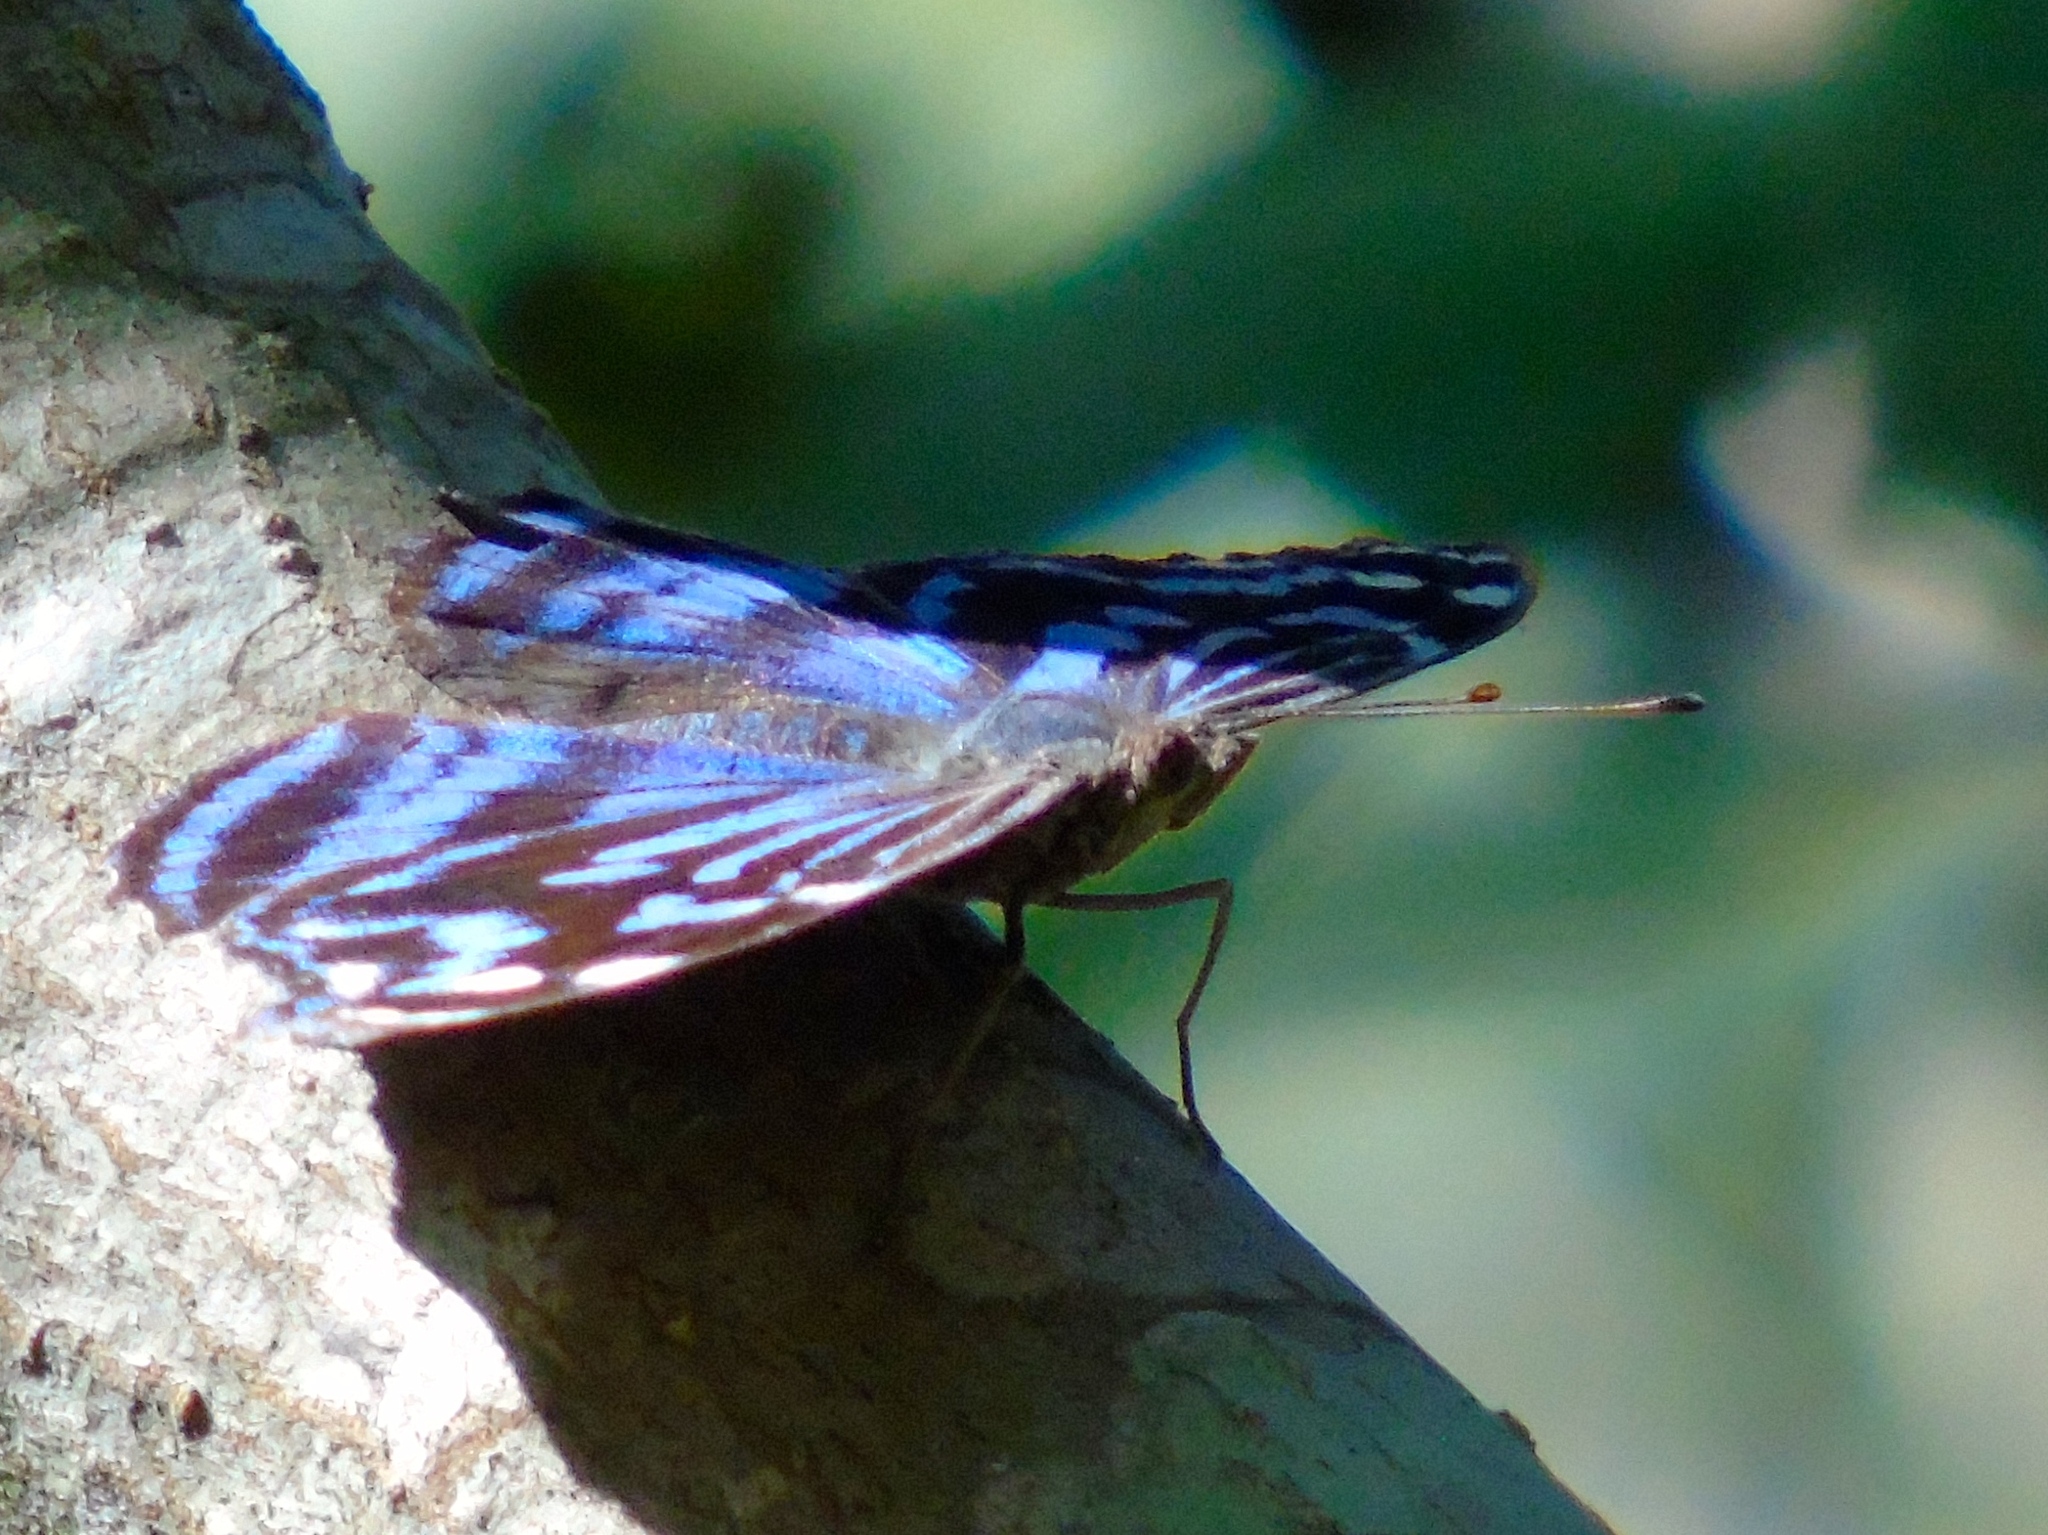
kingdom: Animalia
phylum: Arthropoda
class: Insecta
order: Lepidoptera
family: Nymphalidae
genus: Myscelia
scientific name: Myscelia ethusa
